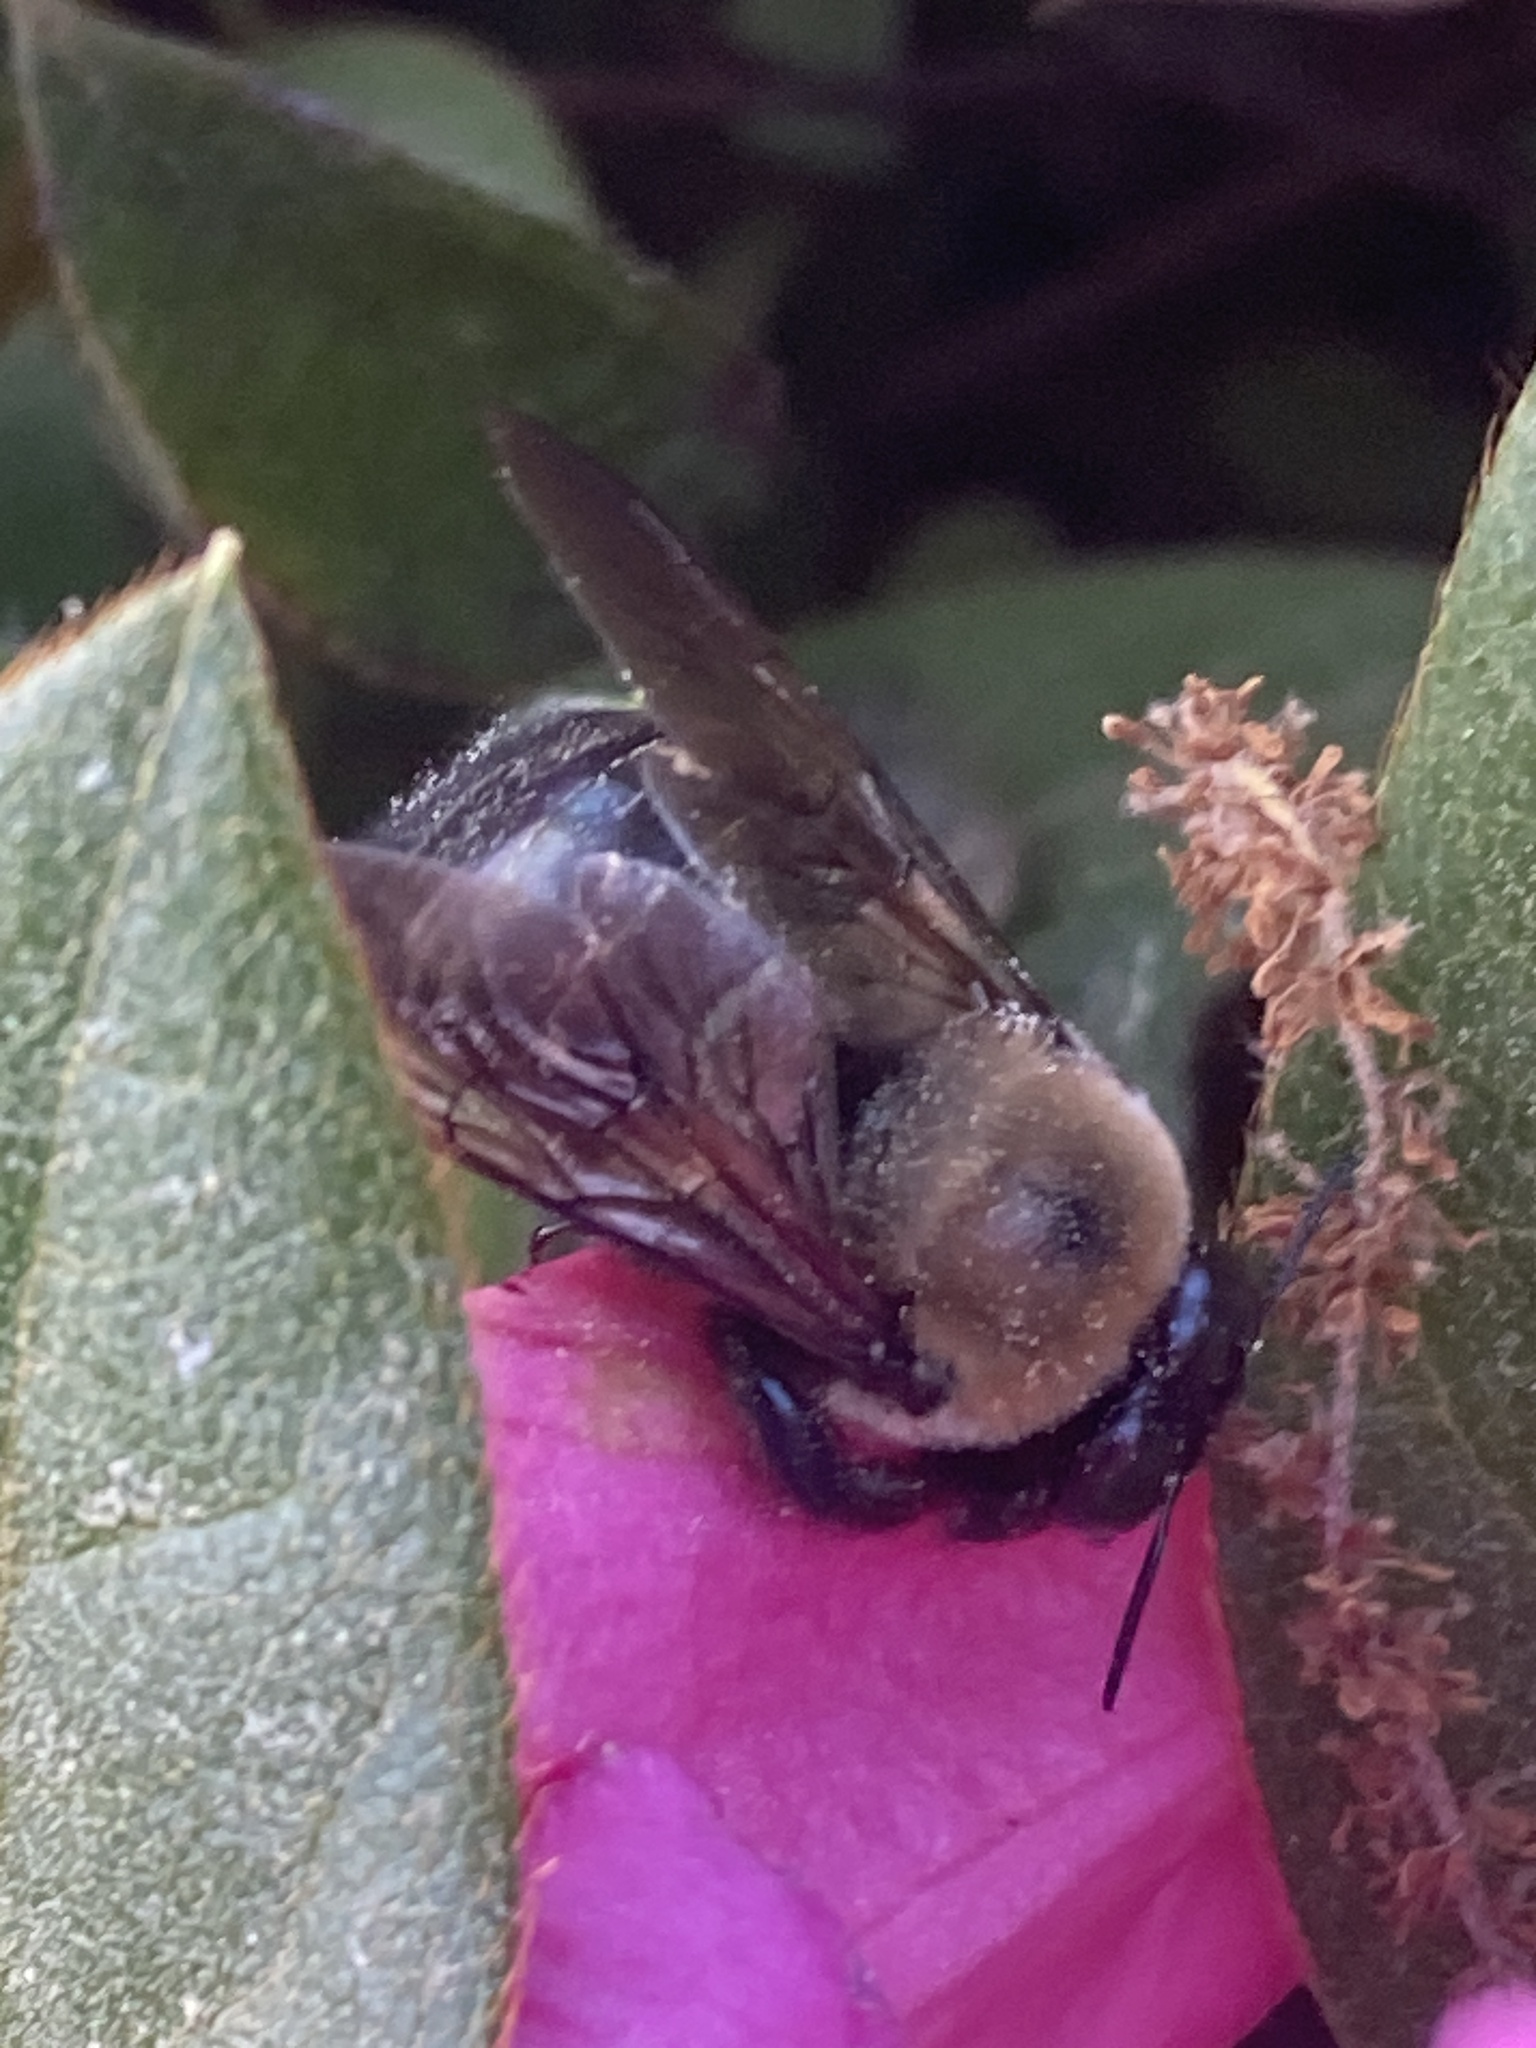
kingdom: Animalia
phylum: Arthropoda
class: Insecta
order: Hymenoptera
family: Apidae
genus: Xylocopa
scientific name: Xylocopa virginica
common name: Carpenter bee
